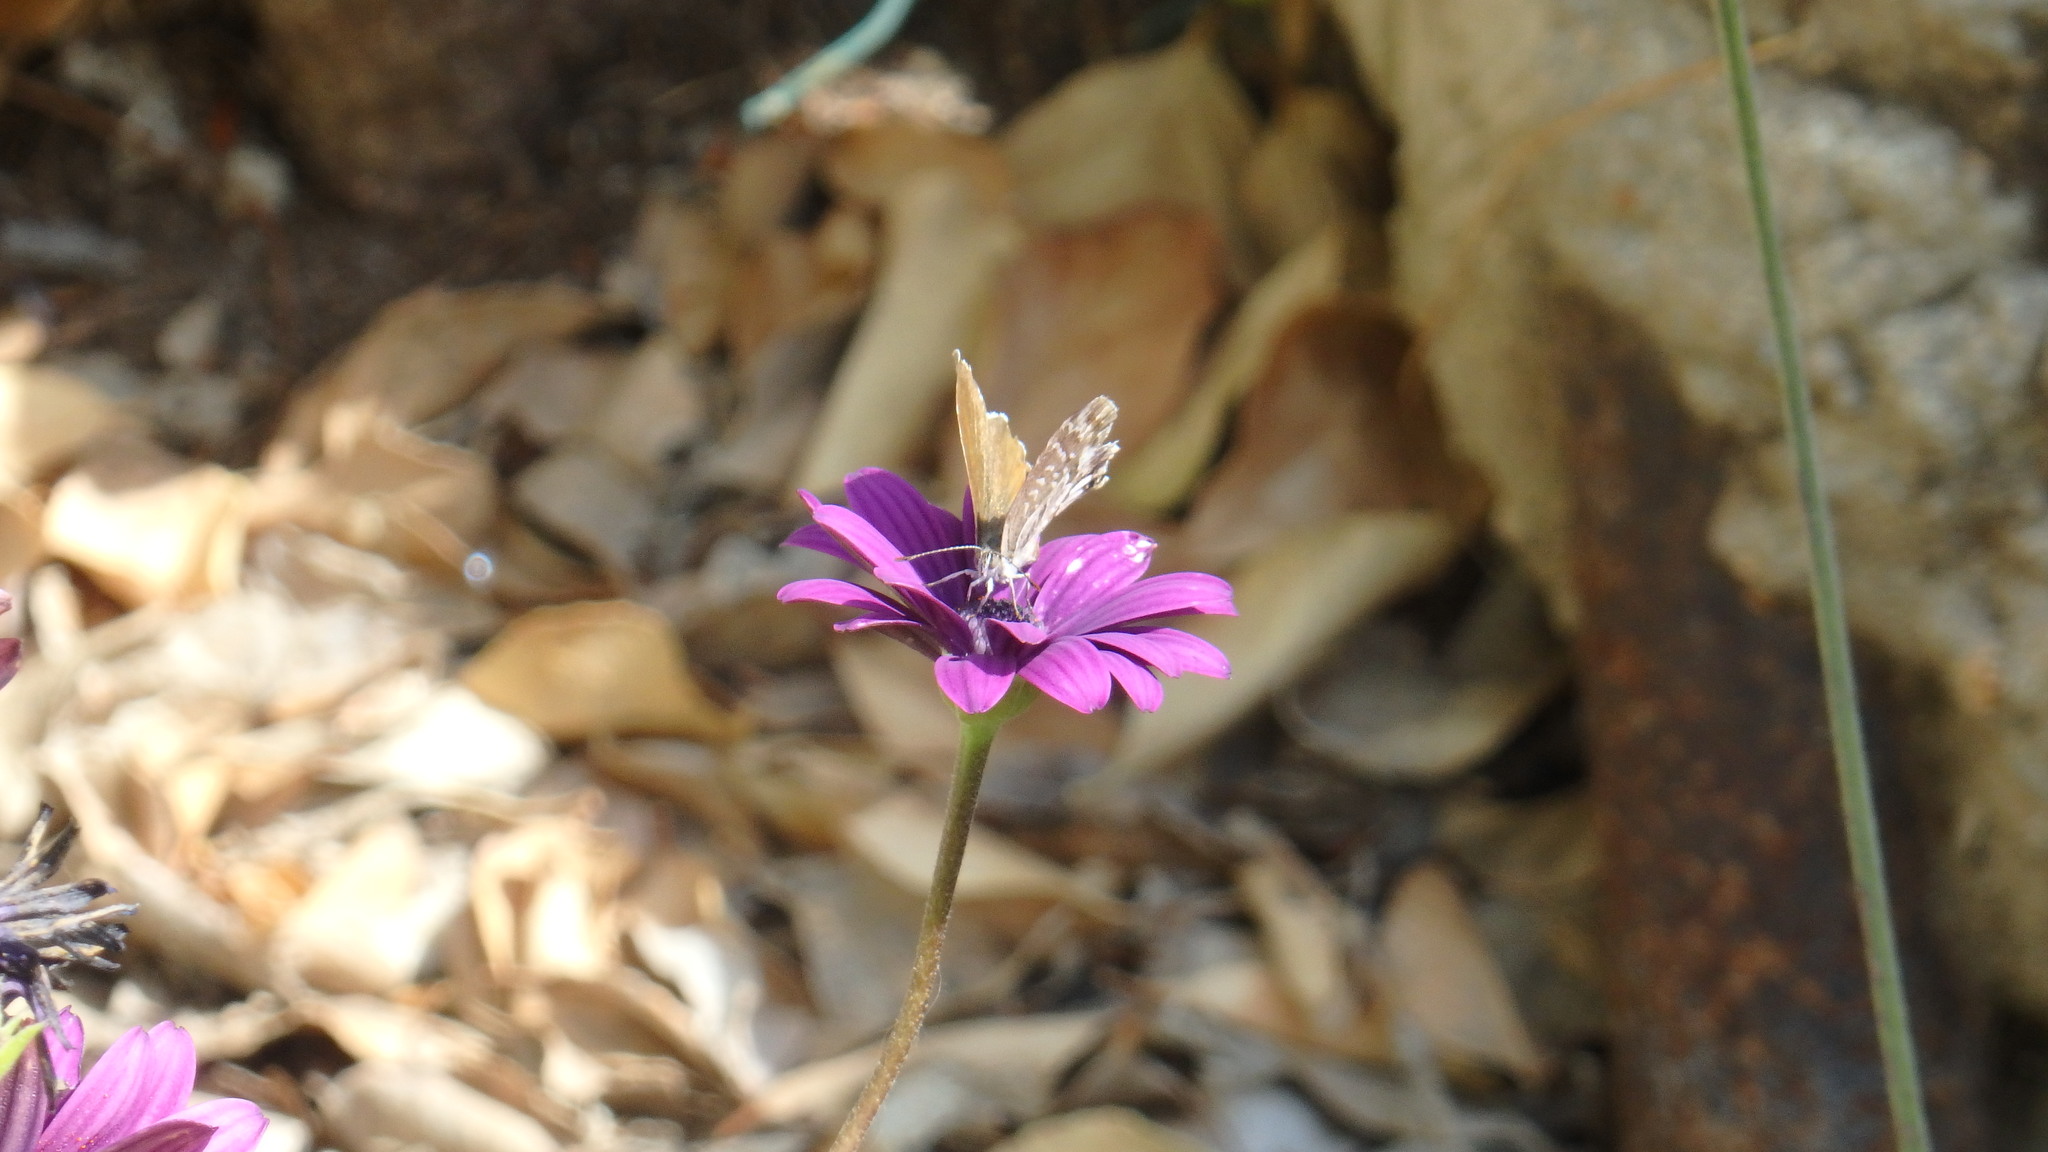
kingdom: Animalia
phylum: Arthropoda
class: Insecta
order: Lepidoptera
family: Lycaenidae
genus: Cacyreus
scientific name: Cacyreus marshalli
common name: Geranium bronze
